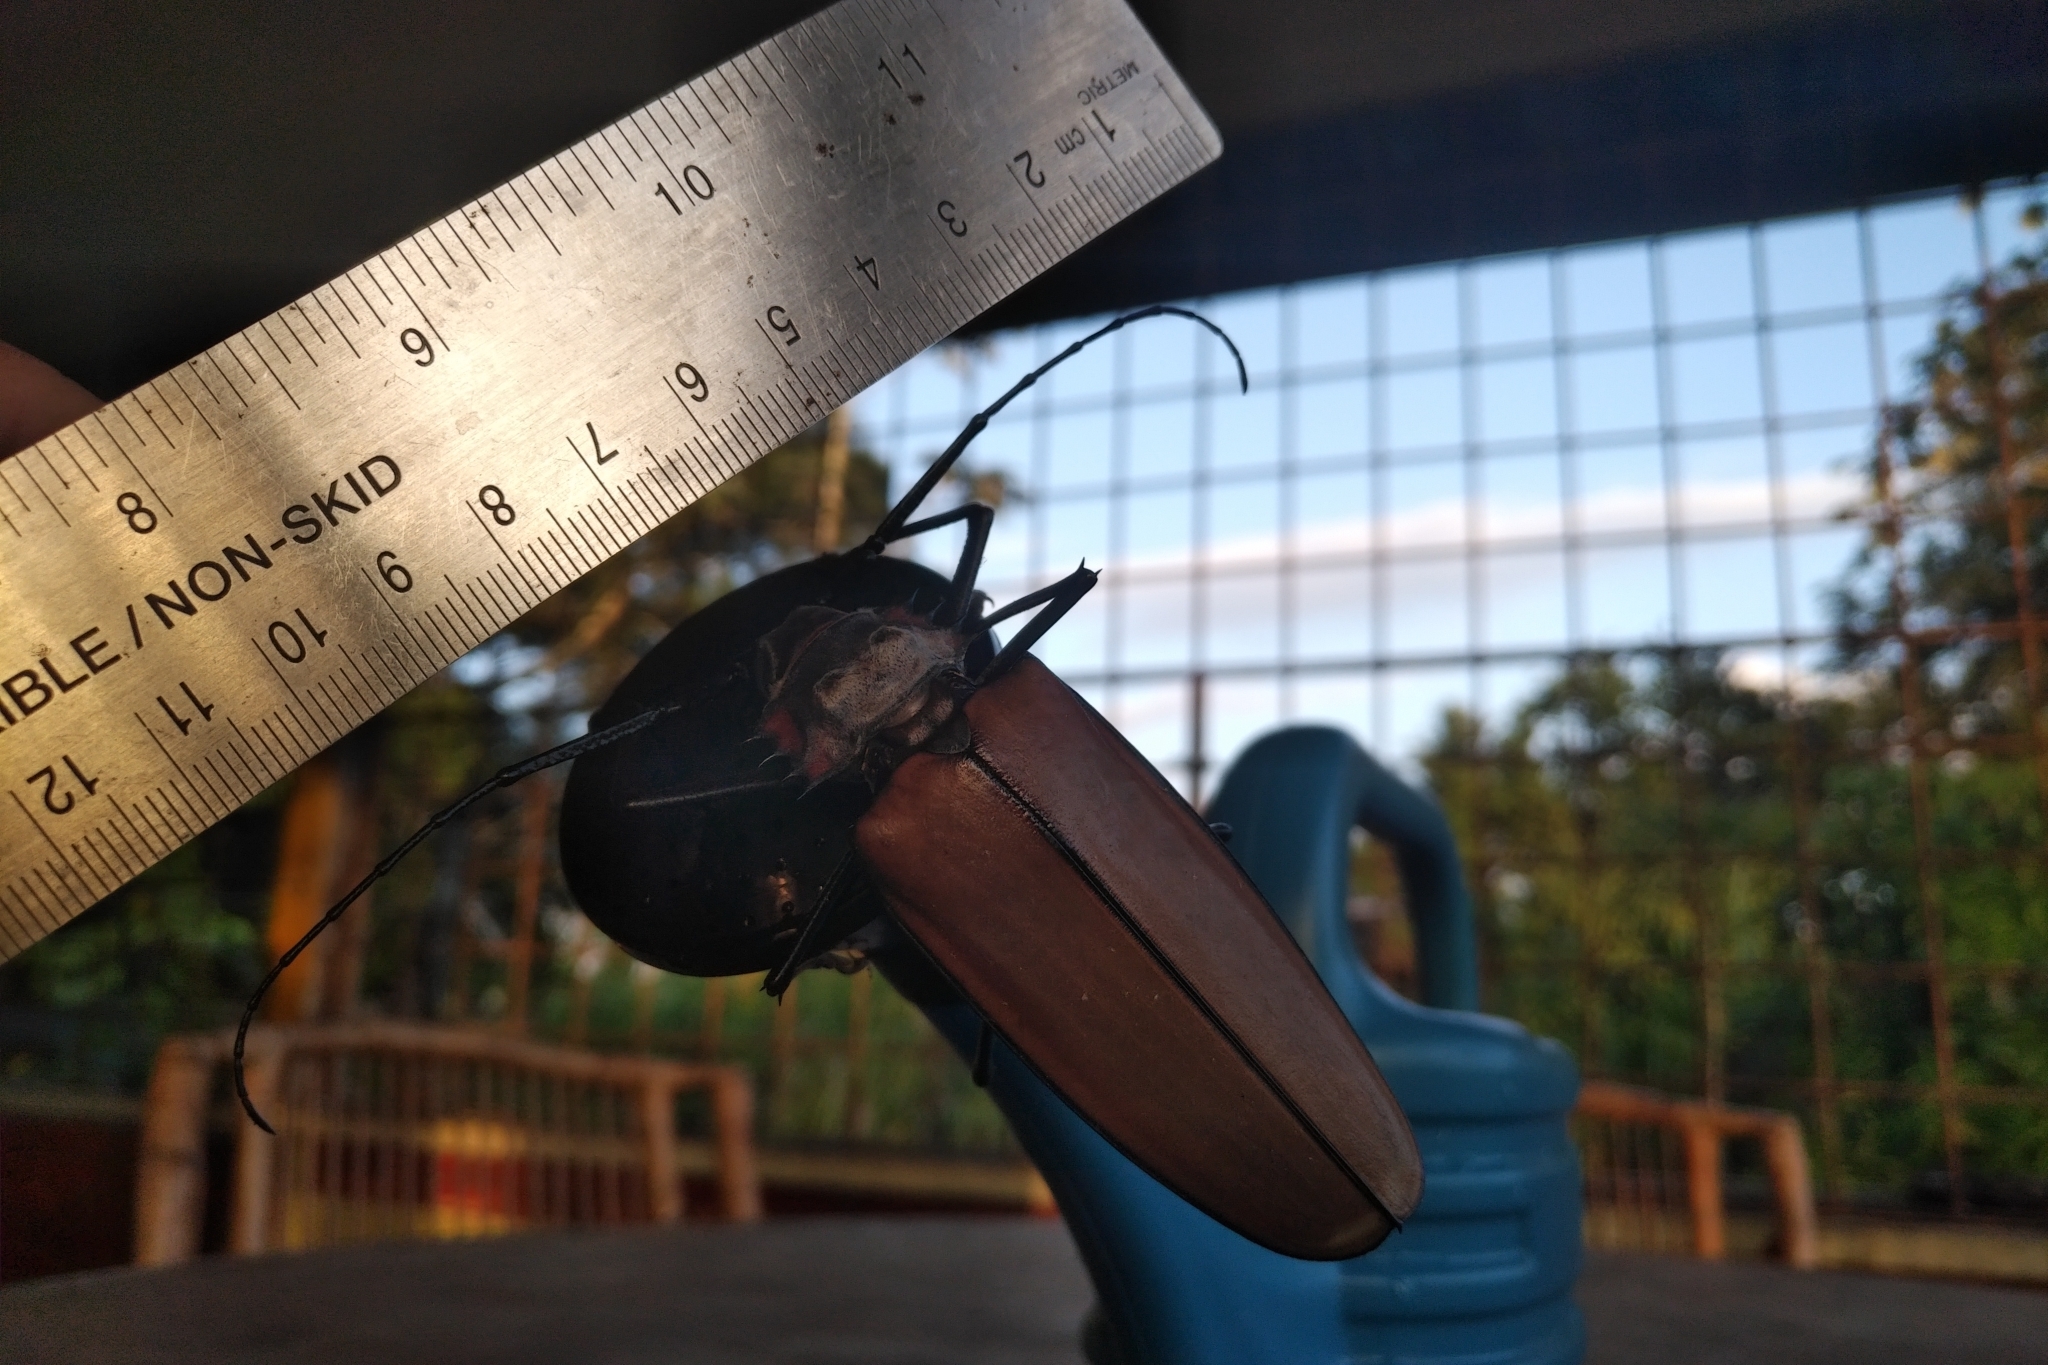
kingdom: Animalia
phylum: Arthropoda
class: Insecta
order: Coleoptera
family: Cerambycidae
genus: Enoplocerus
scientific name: Enoplocerus armillatus
